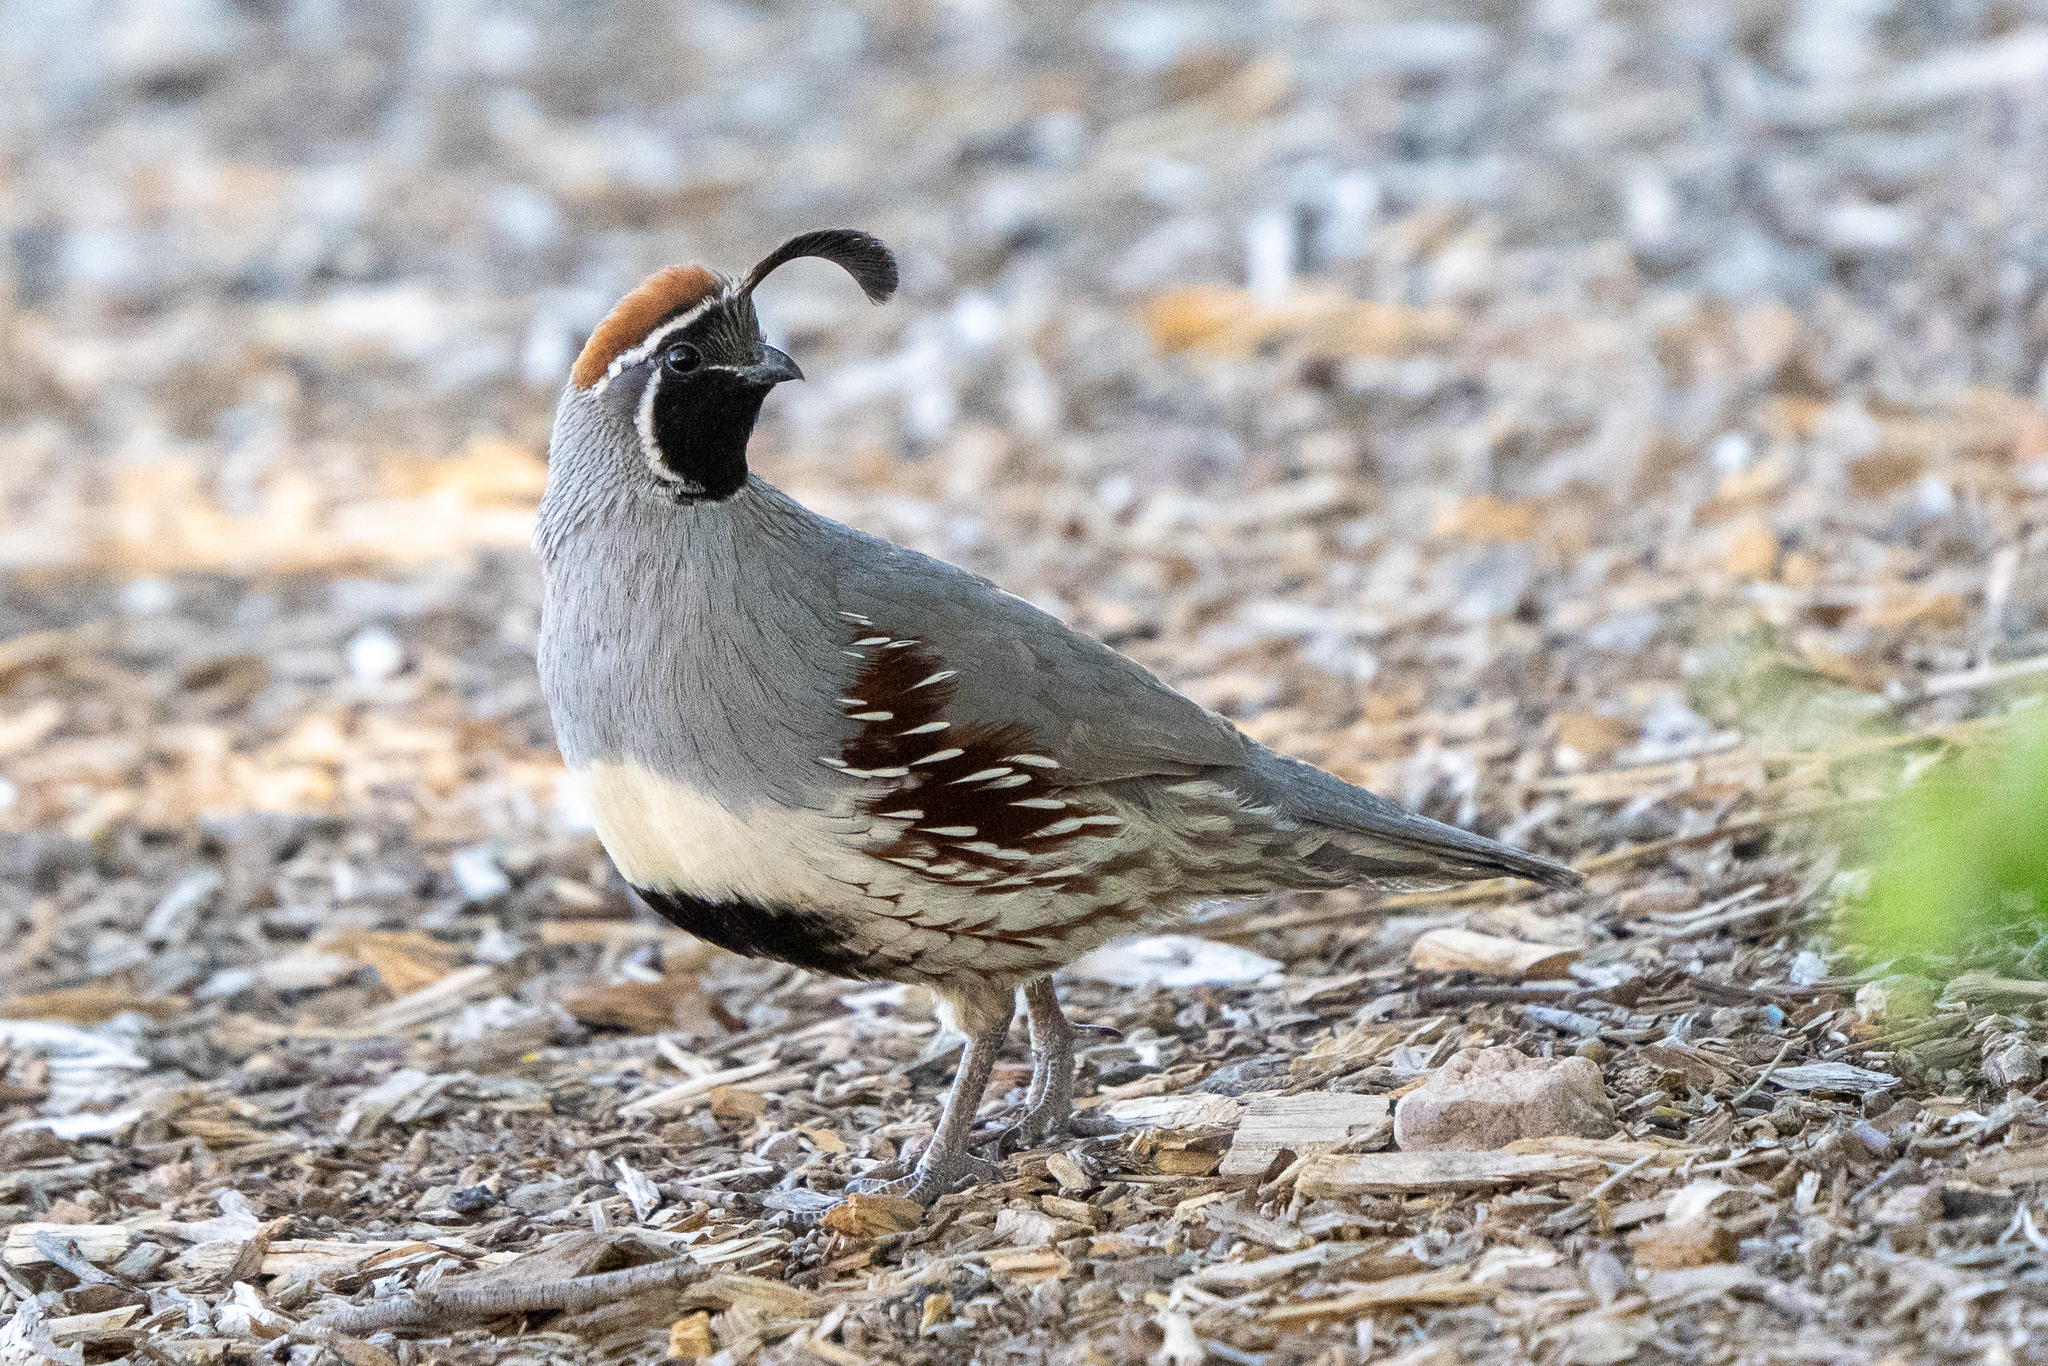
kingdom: Animalia
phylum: Chordata
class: Aves
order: Galliformes
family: Odontophoridae
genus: Callipepla
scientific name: Callipepla gambelii
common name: Gambel's quail
